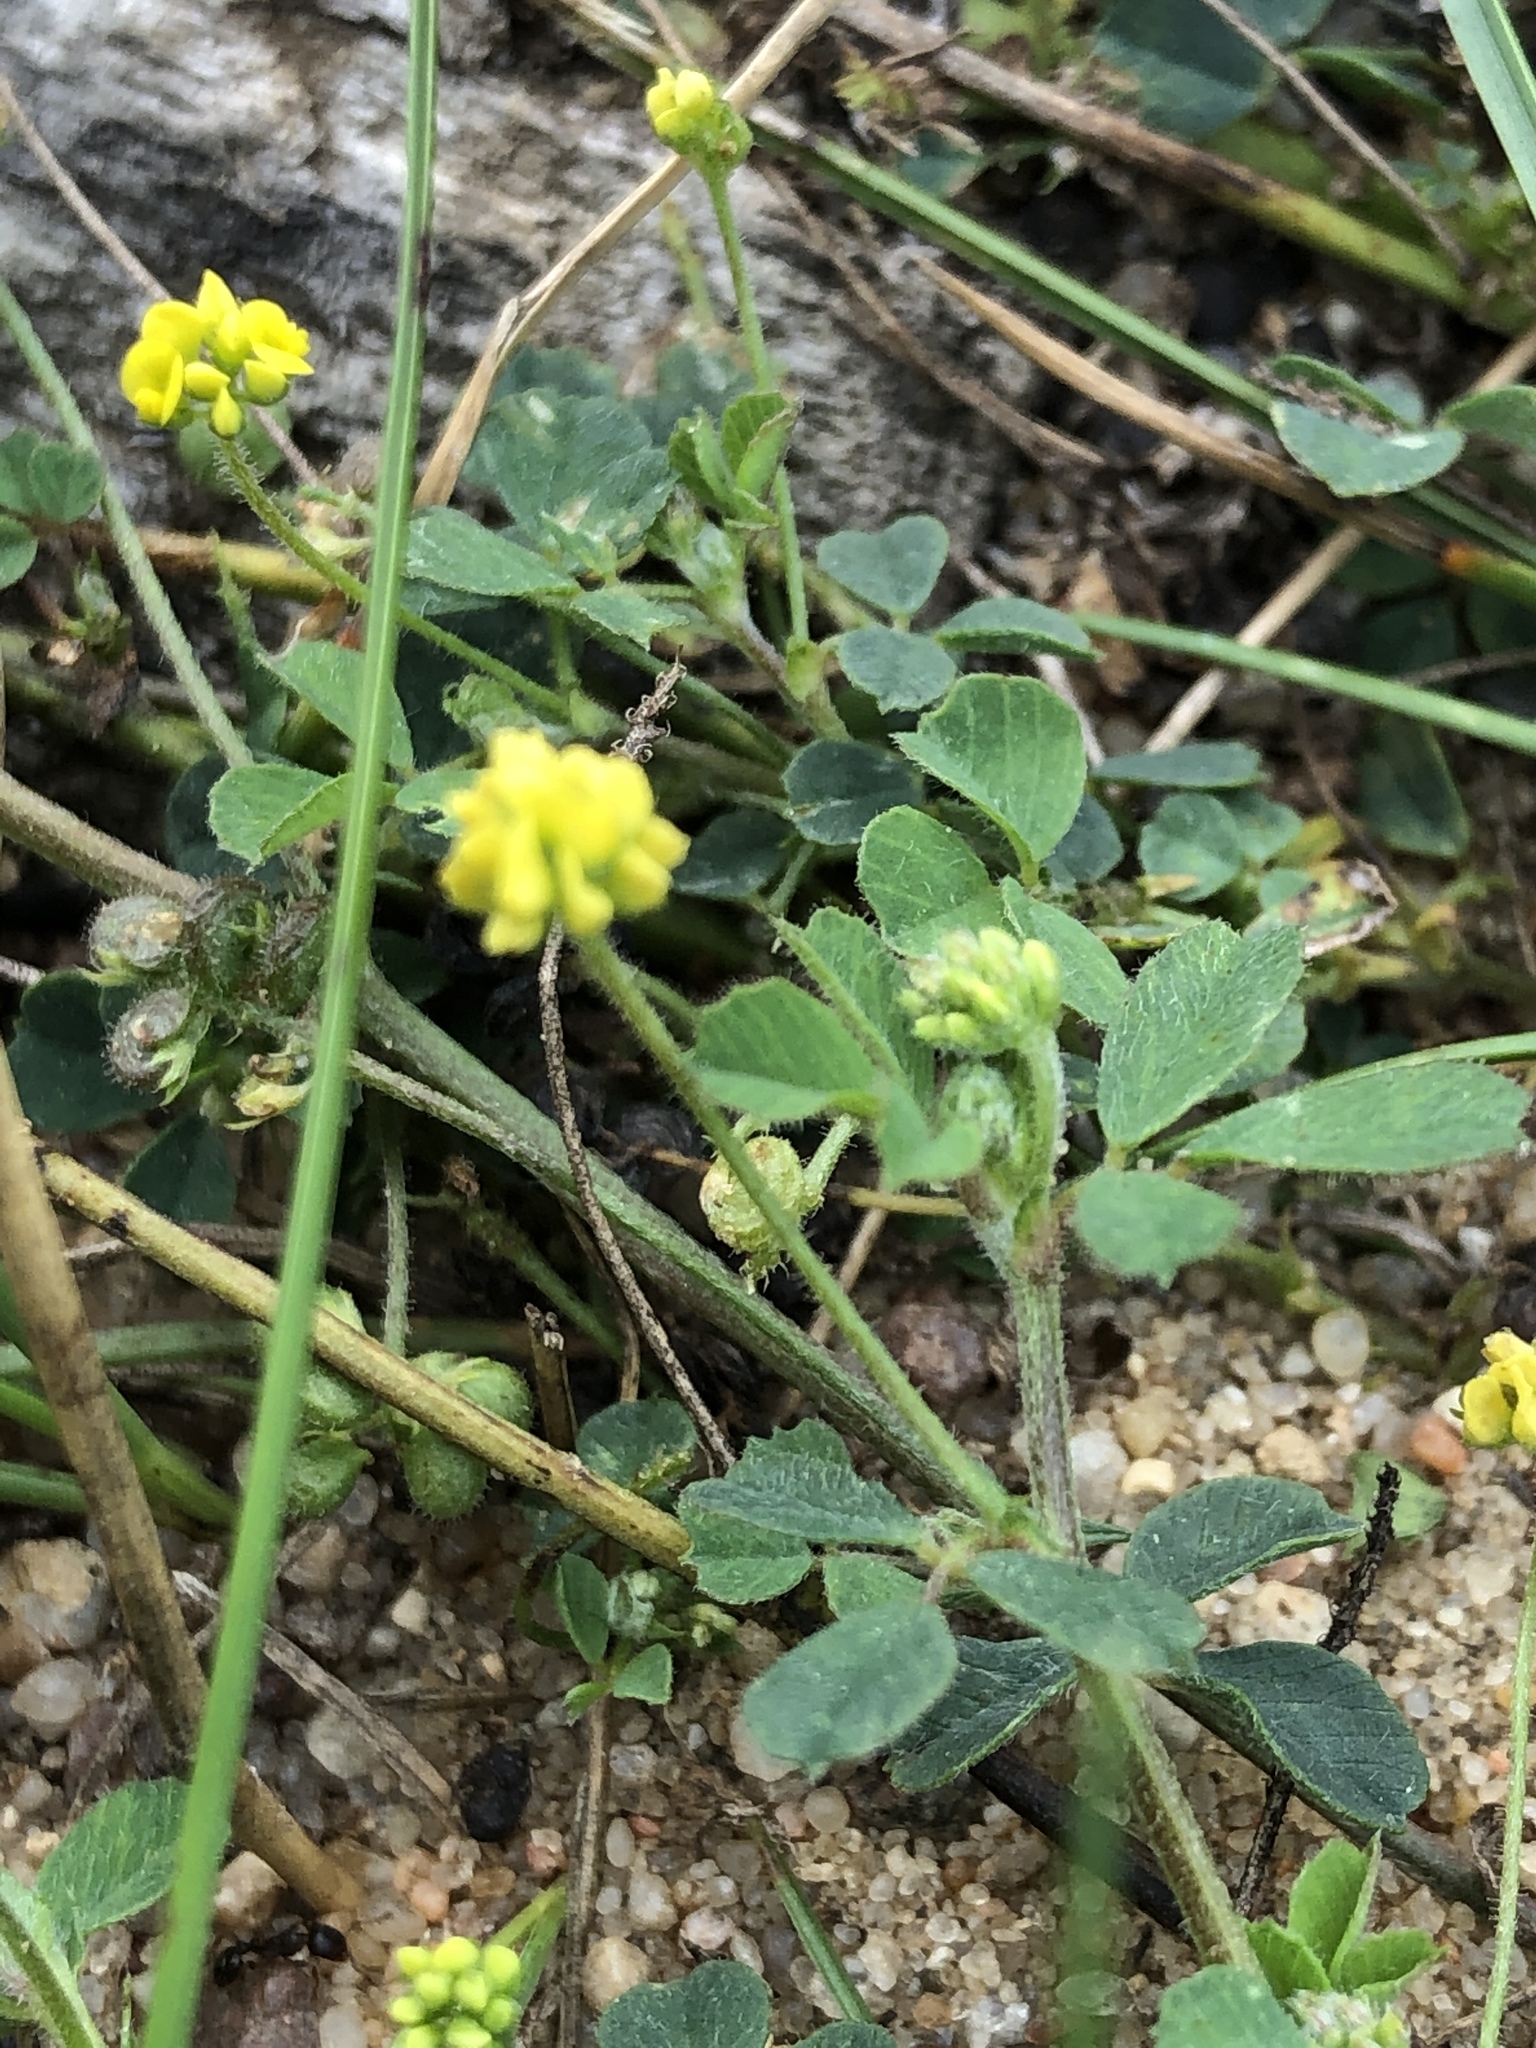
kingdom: Plantae
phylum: Tracheophyta
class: Magnoliopsida
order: Fabales
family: Fabaceae
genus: Medicago
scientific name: Medicago lupulina
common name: Black medick
